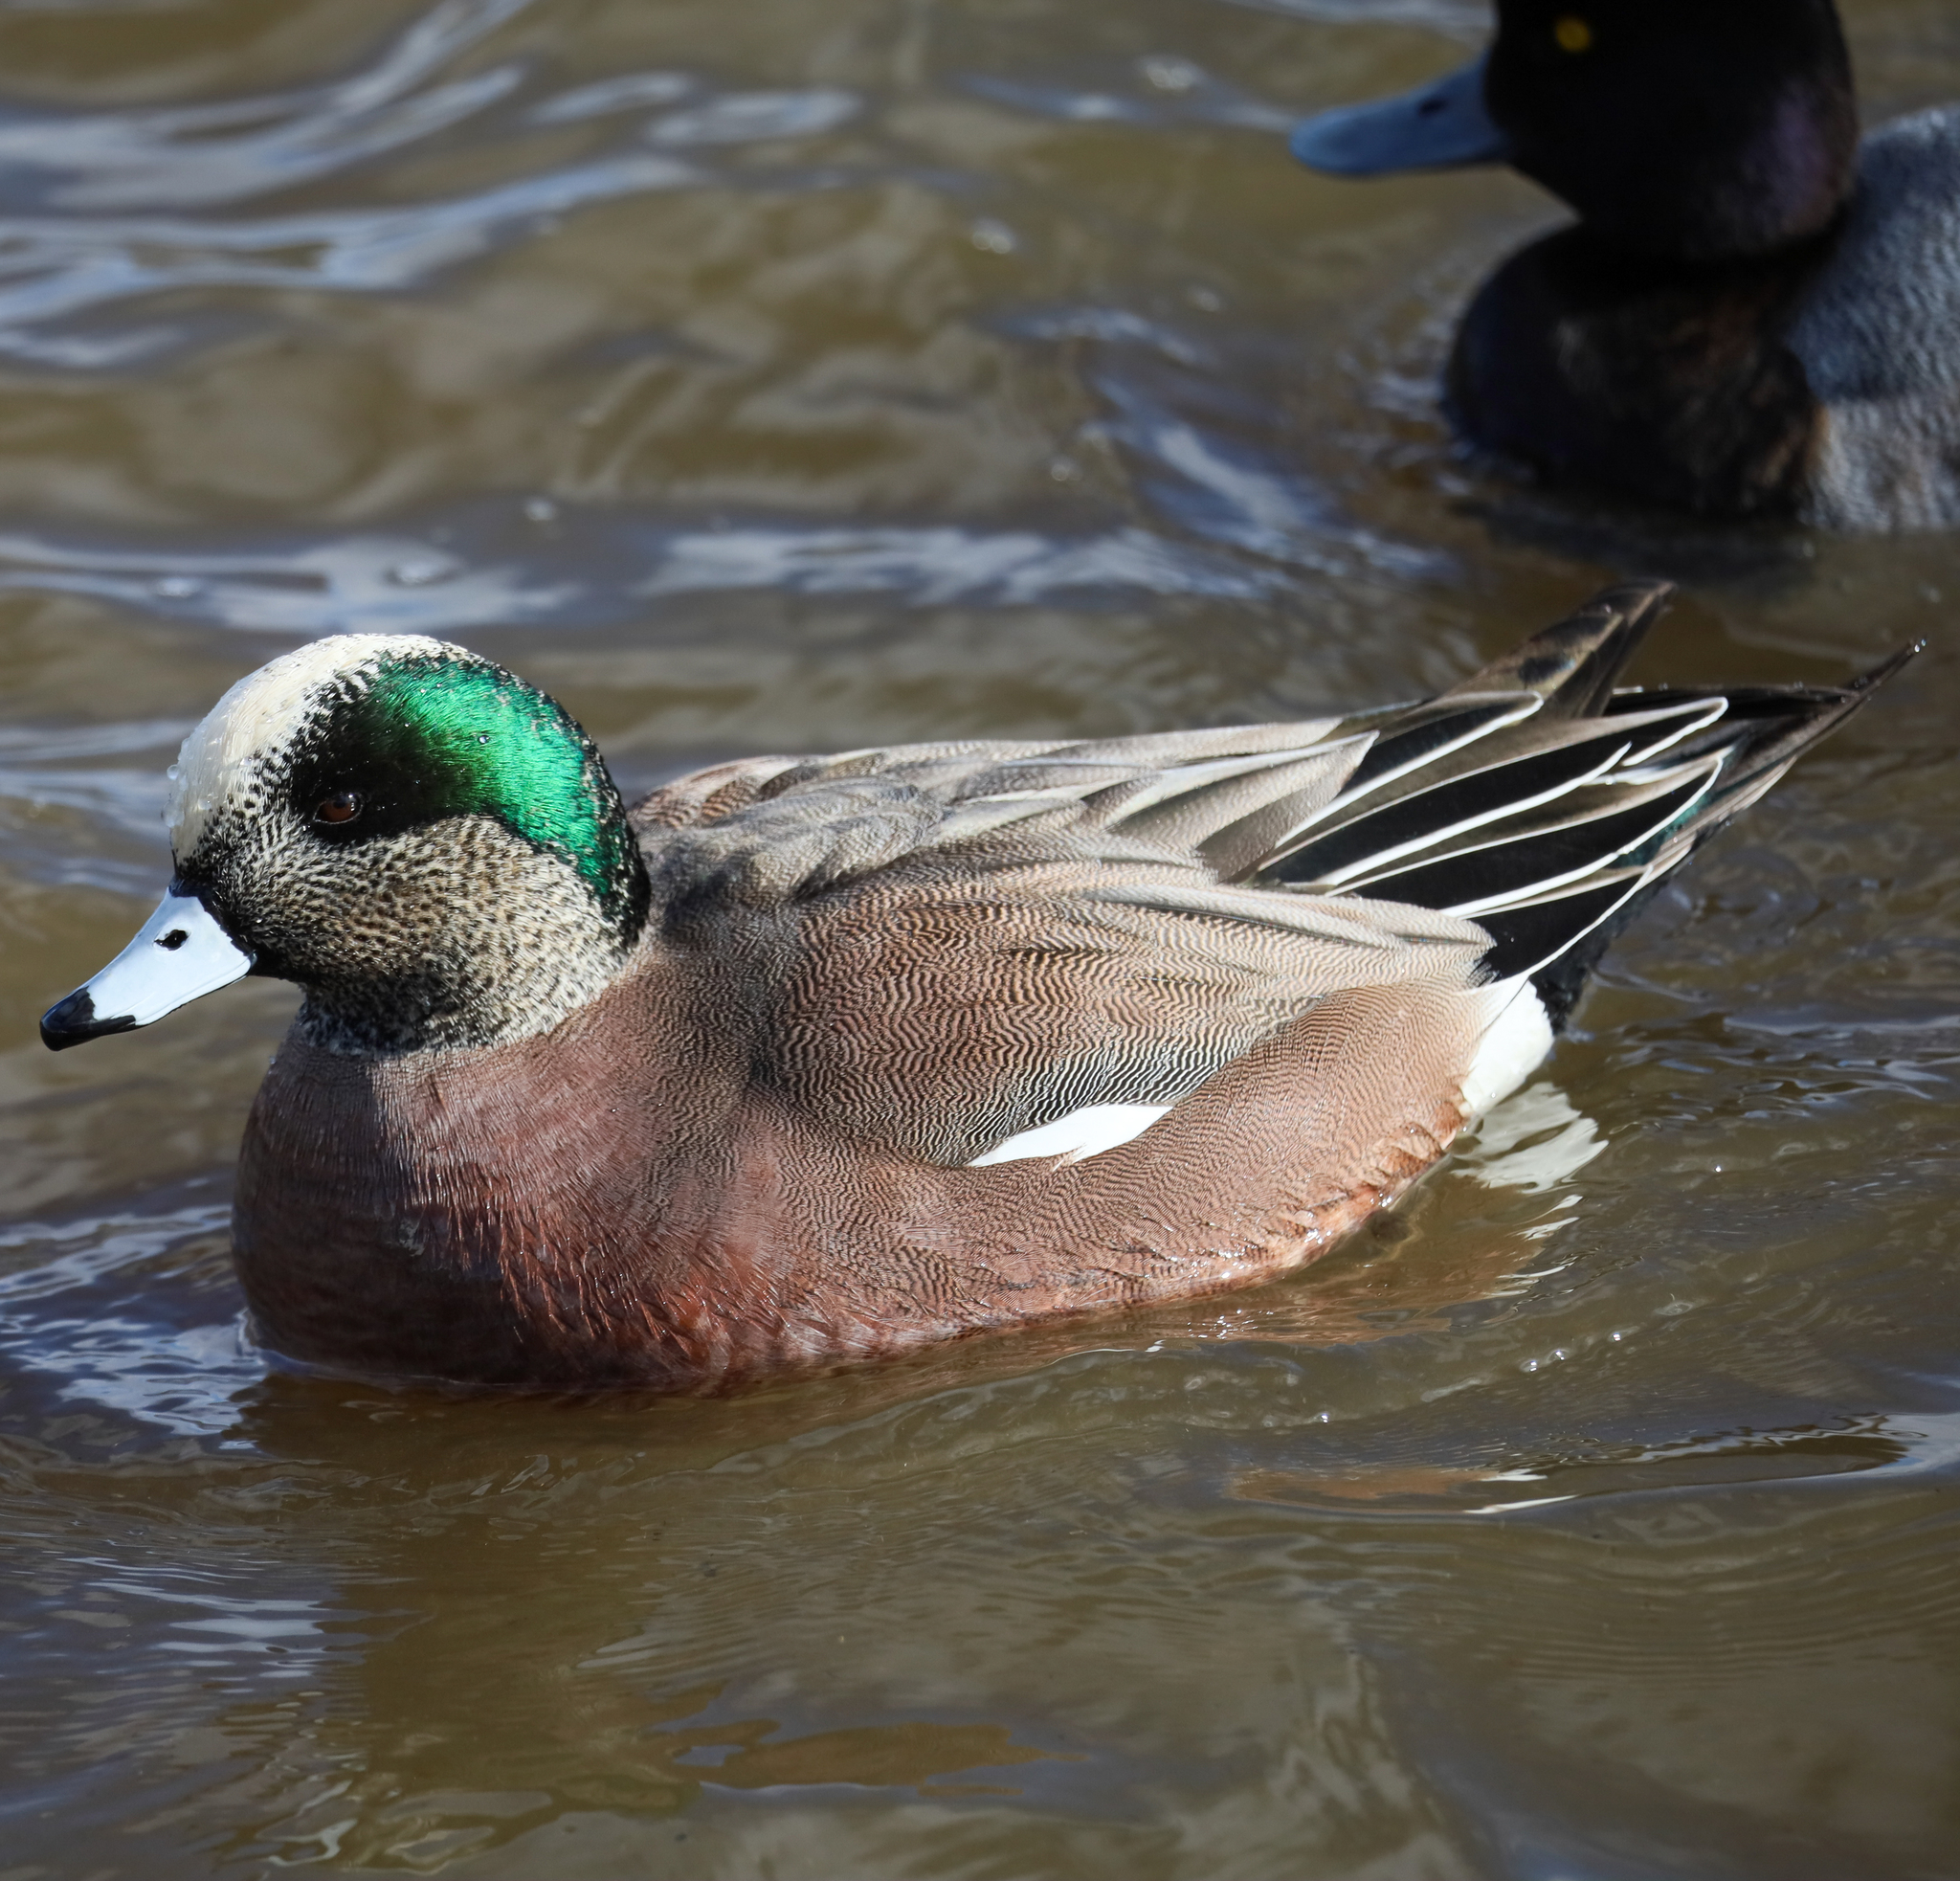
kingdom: Animalia
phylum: Chordata
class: Aves
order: Anseriformes
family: Anatidae
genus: Mareca
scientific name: Mareca americana
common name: American wigeon
